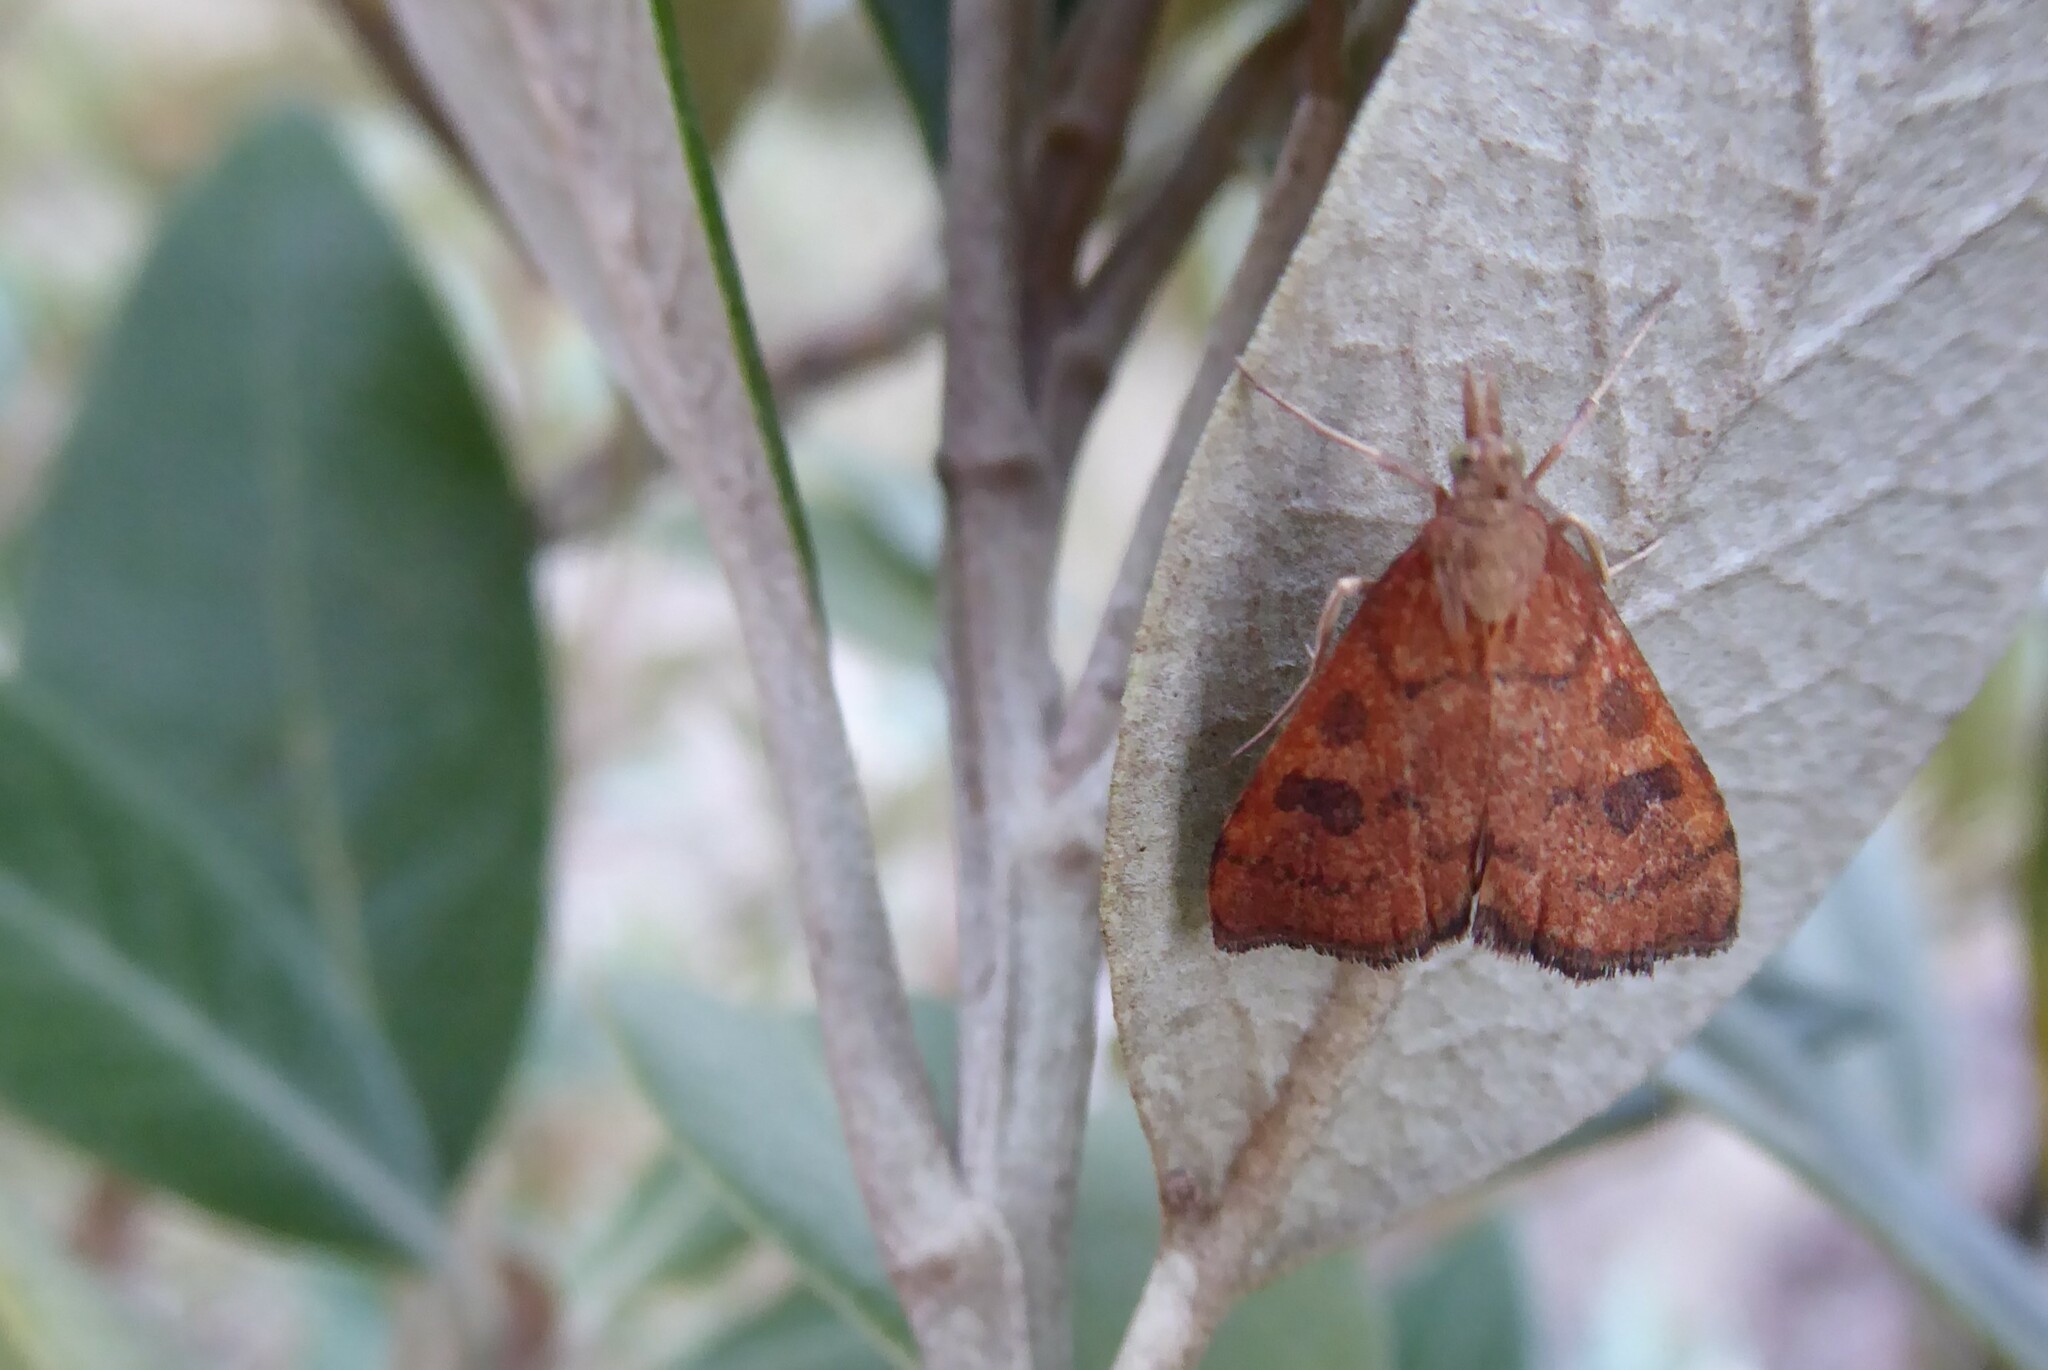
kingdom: Animalia
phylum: Arthropoda
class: Insecta
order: Lepidoptera
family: Crambidae
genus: Udea
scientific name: Udea Mnesictena flavidalis
